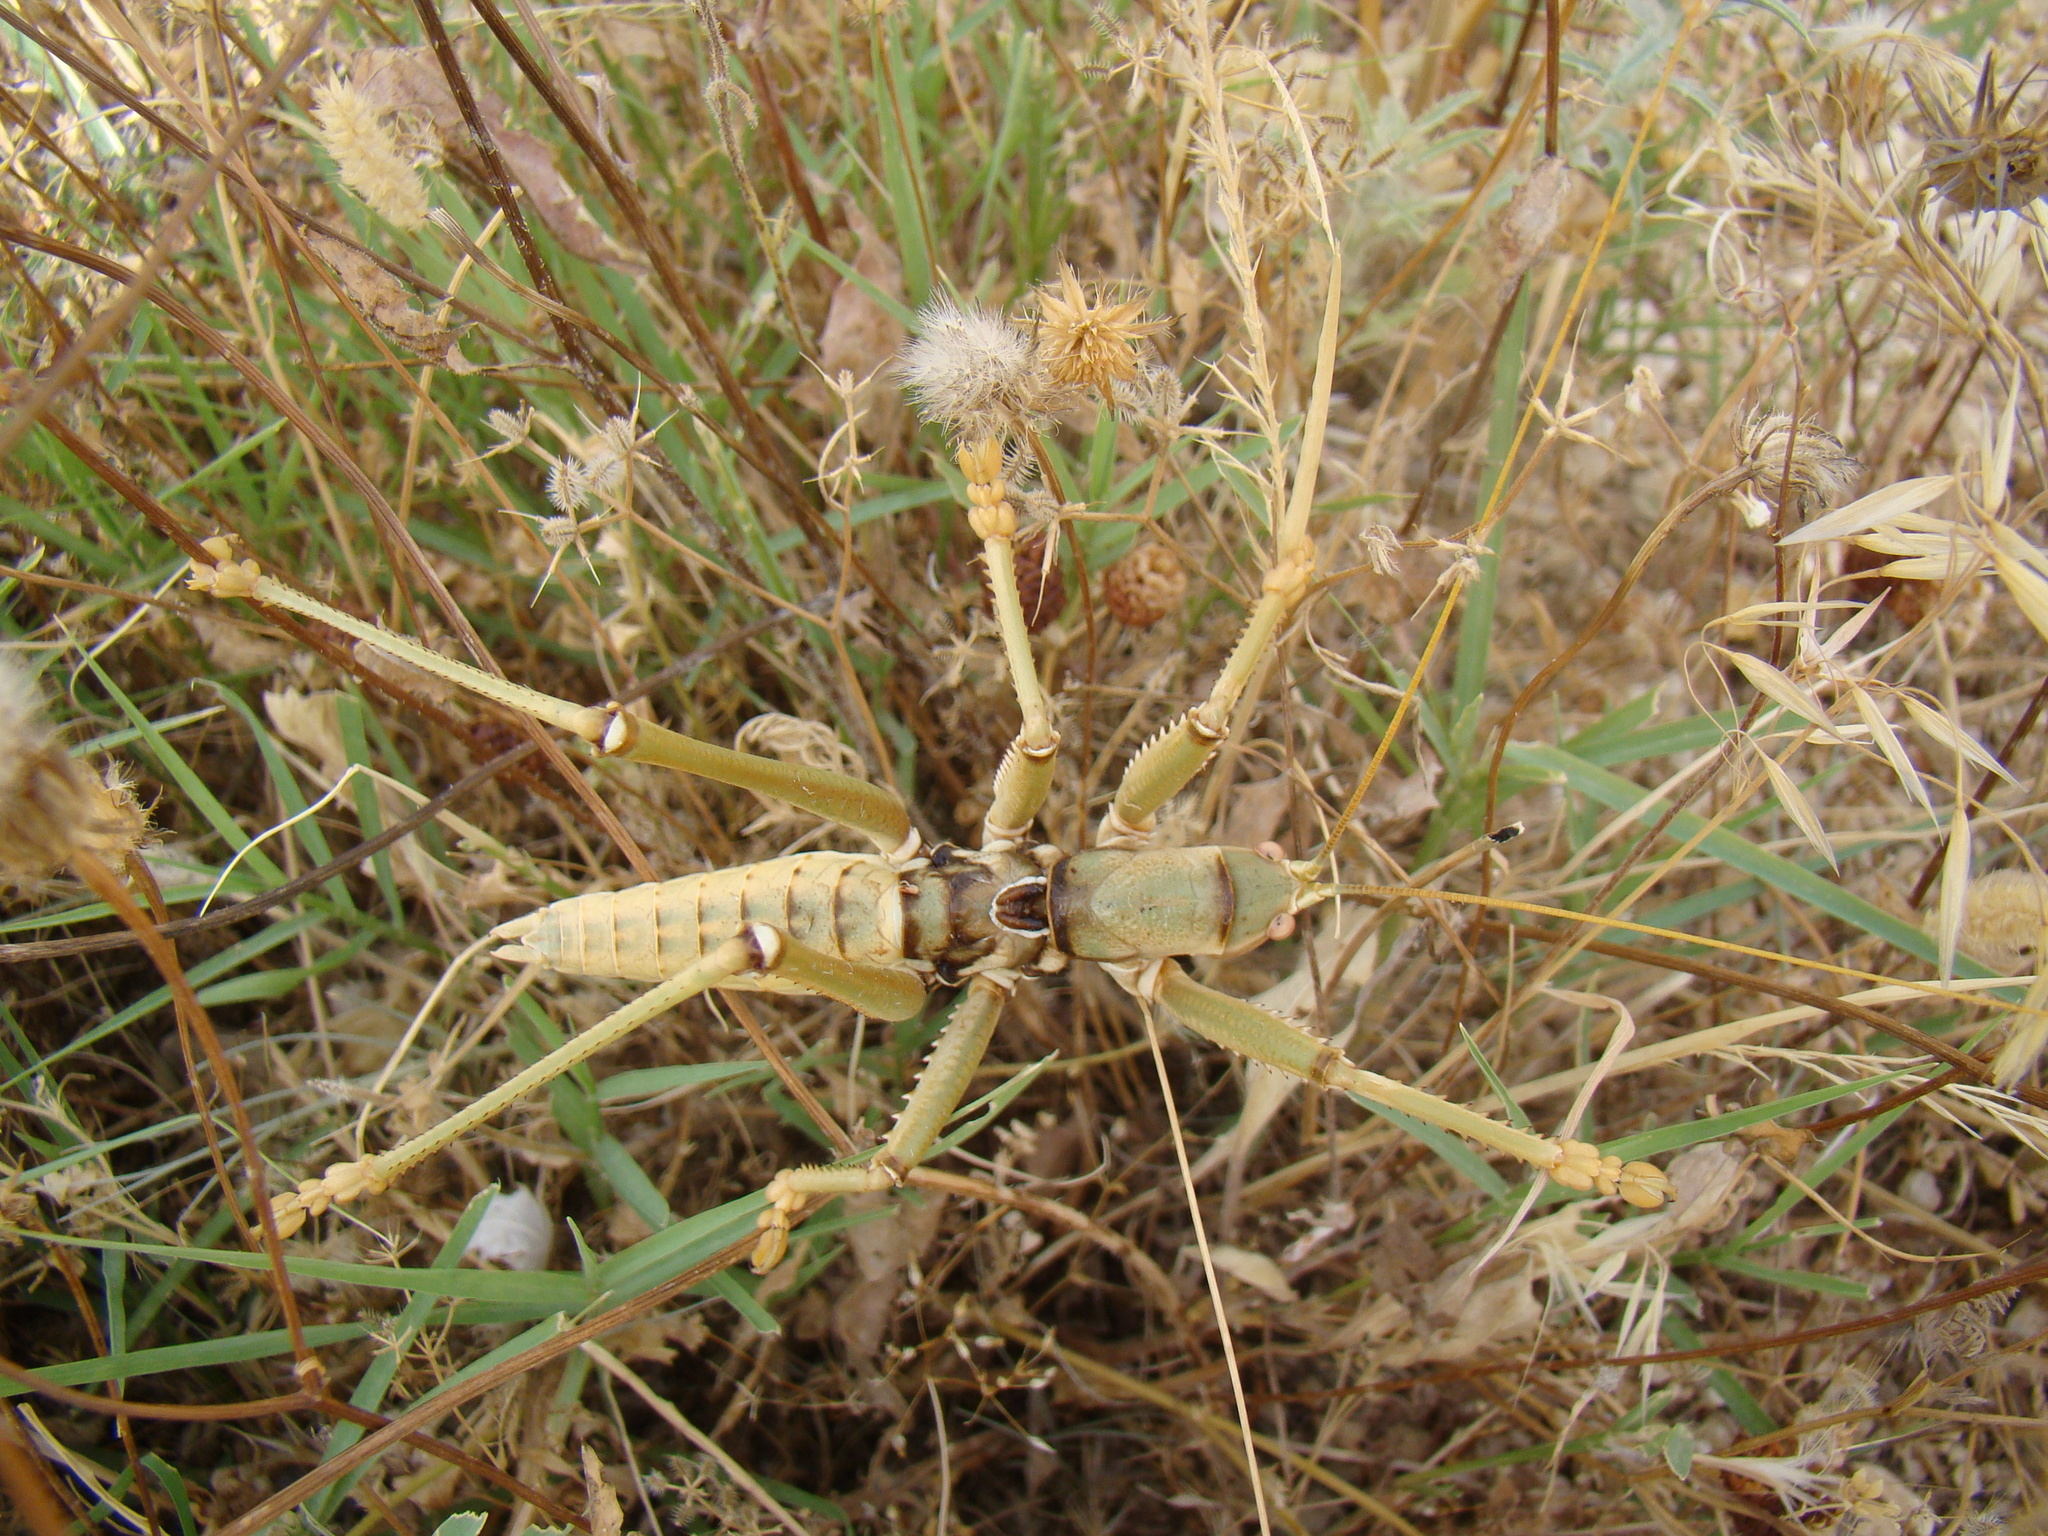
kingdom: Animalia
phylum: Arthropoda
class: Insecta
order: Orthoptera
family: Tettigoniidae
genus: Saga
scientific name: Saga ephippigera
